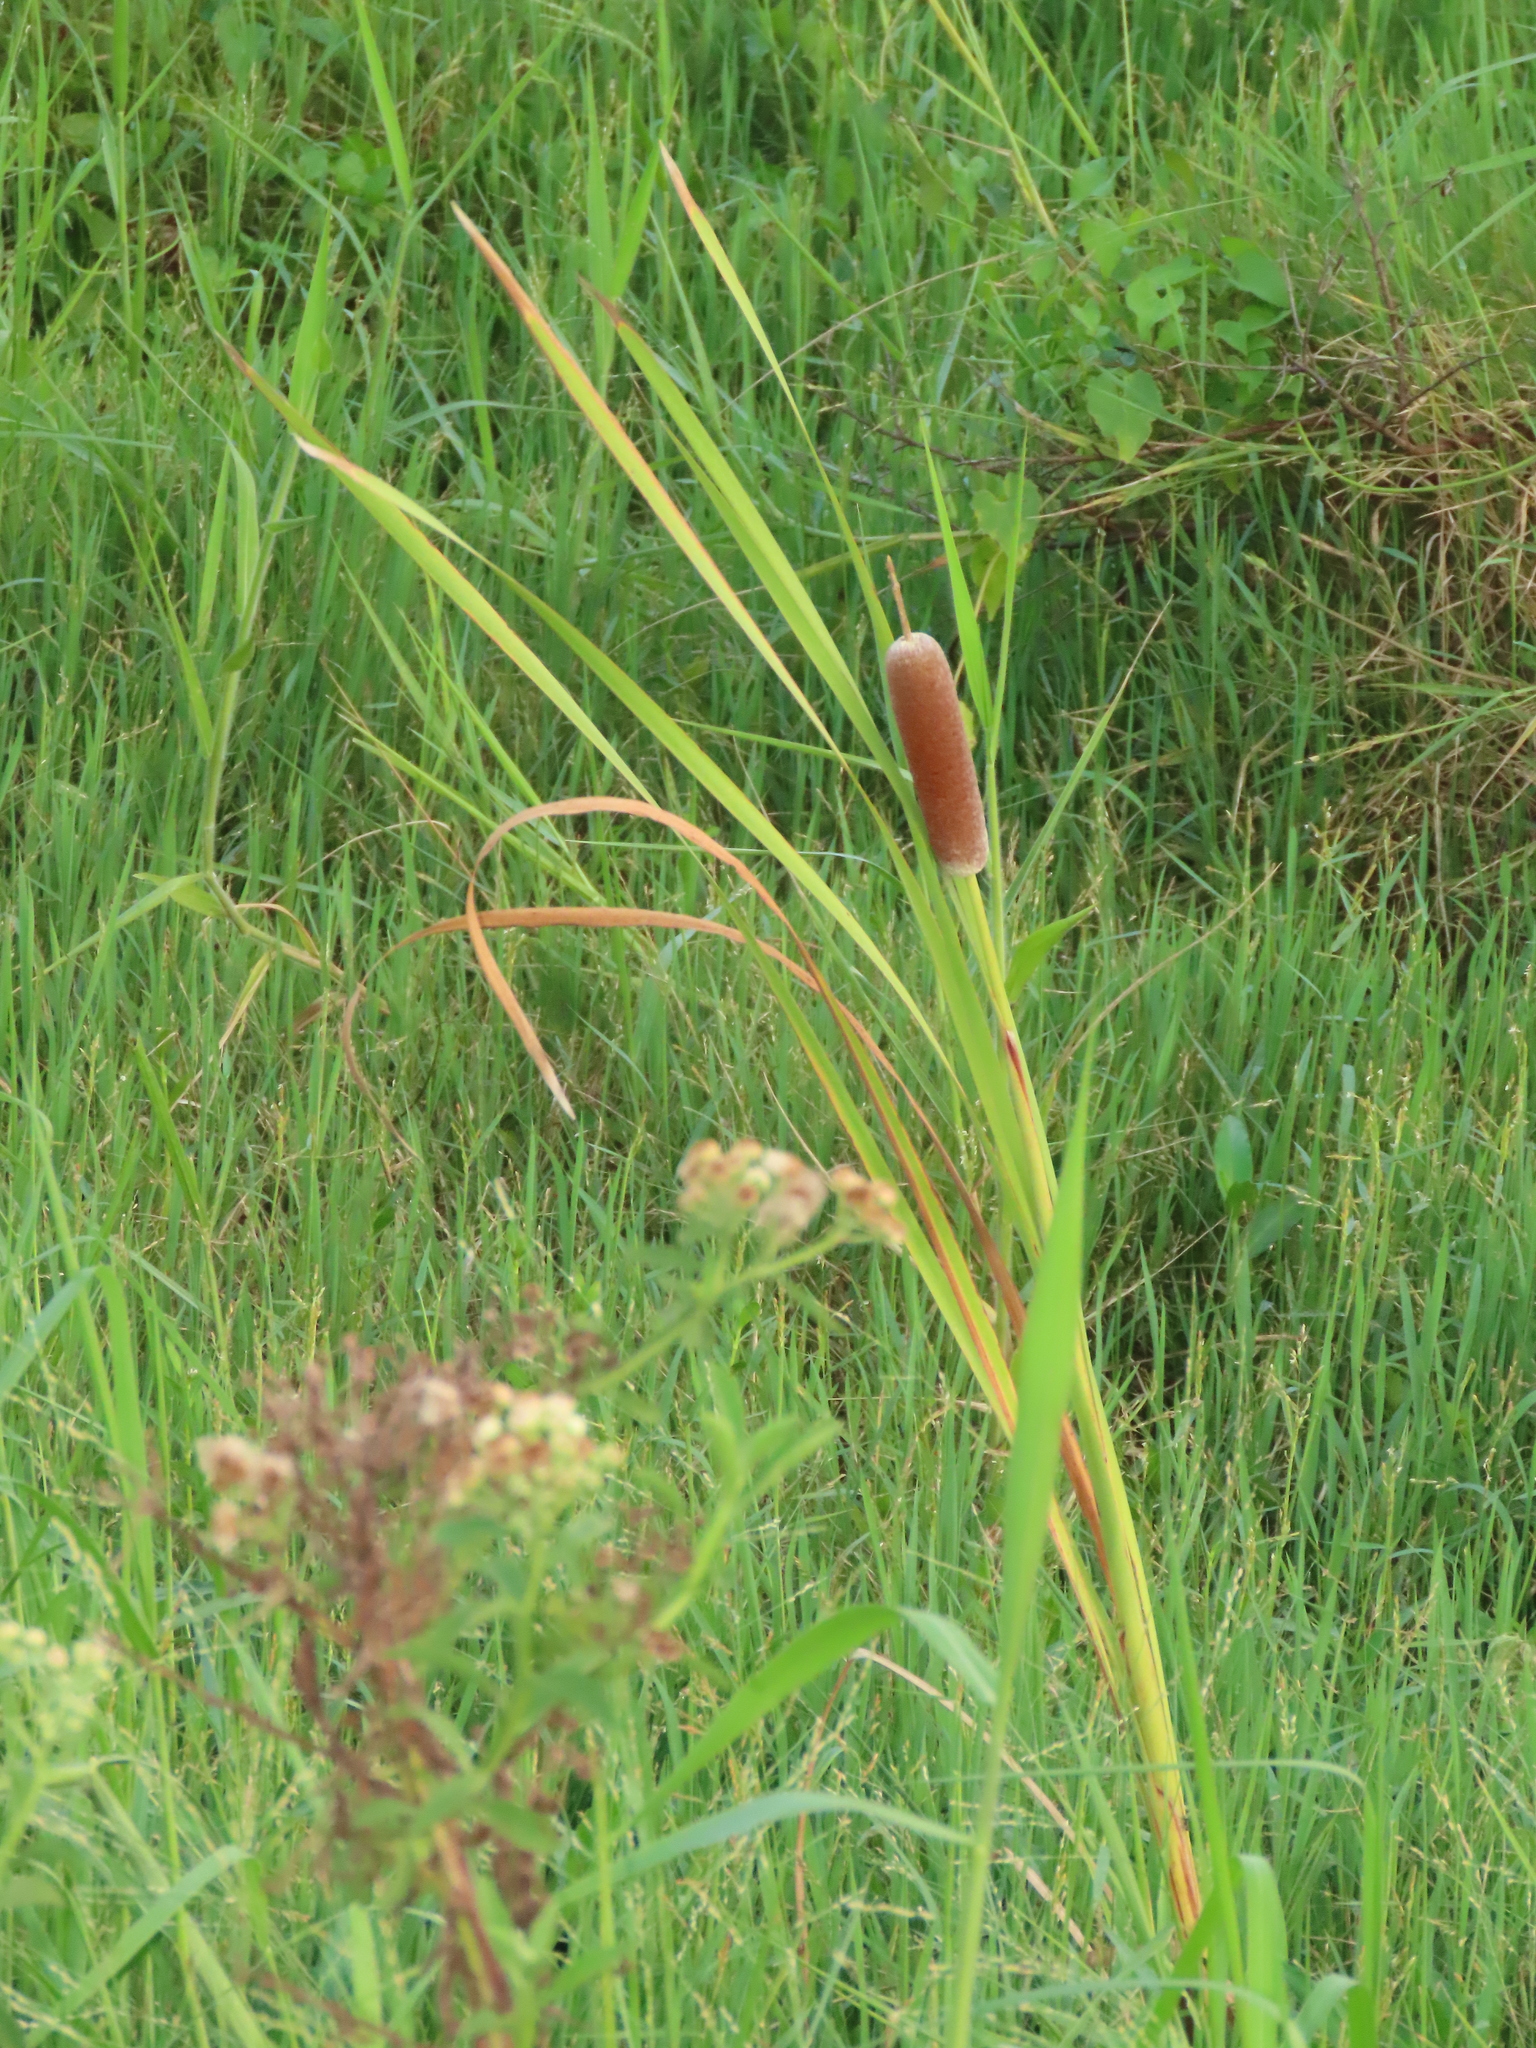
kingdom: Plantae
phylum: Tracheophyta
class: Liliopsida
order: Poales
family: Typhaceae
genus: Typha
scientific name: Typha orientalis
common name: Bullrush
